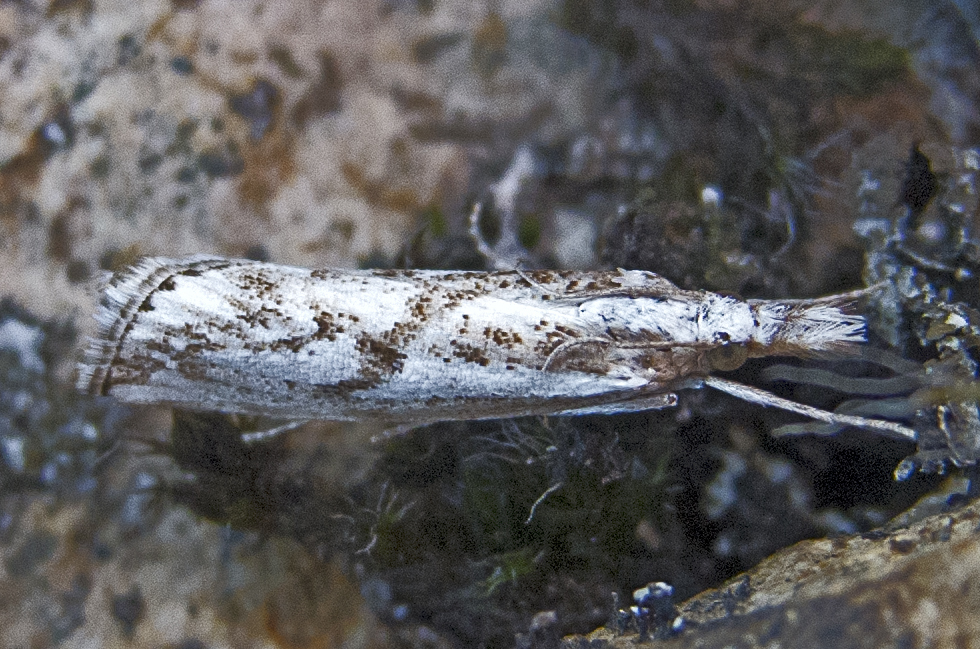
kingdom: Animalia
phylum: Arthropoda
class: Insecta
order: Lepidoptera
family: Crambidae
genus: Catoptria
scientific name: Catoptria confusellus
